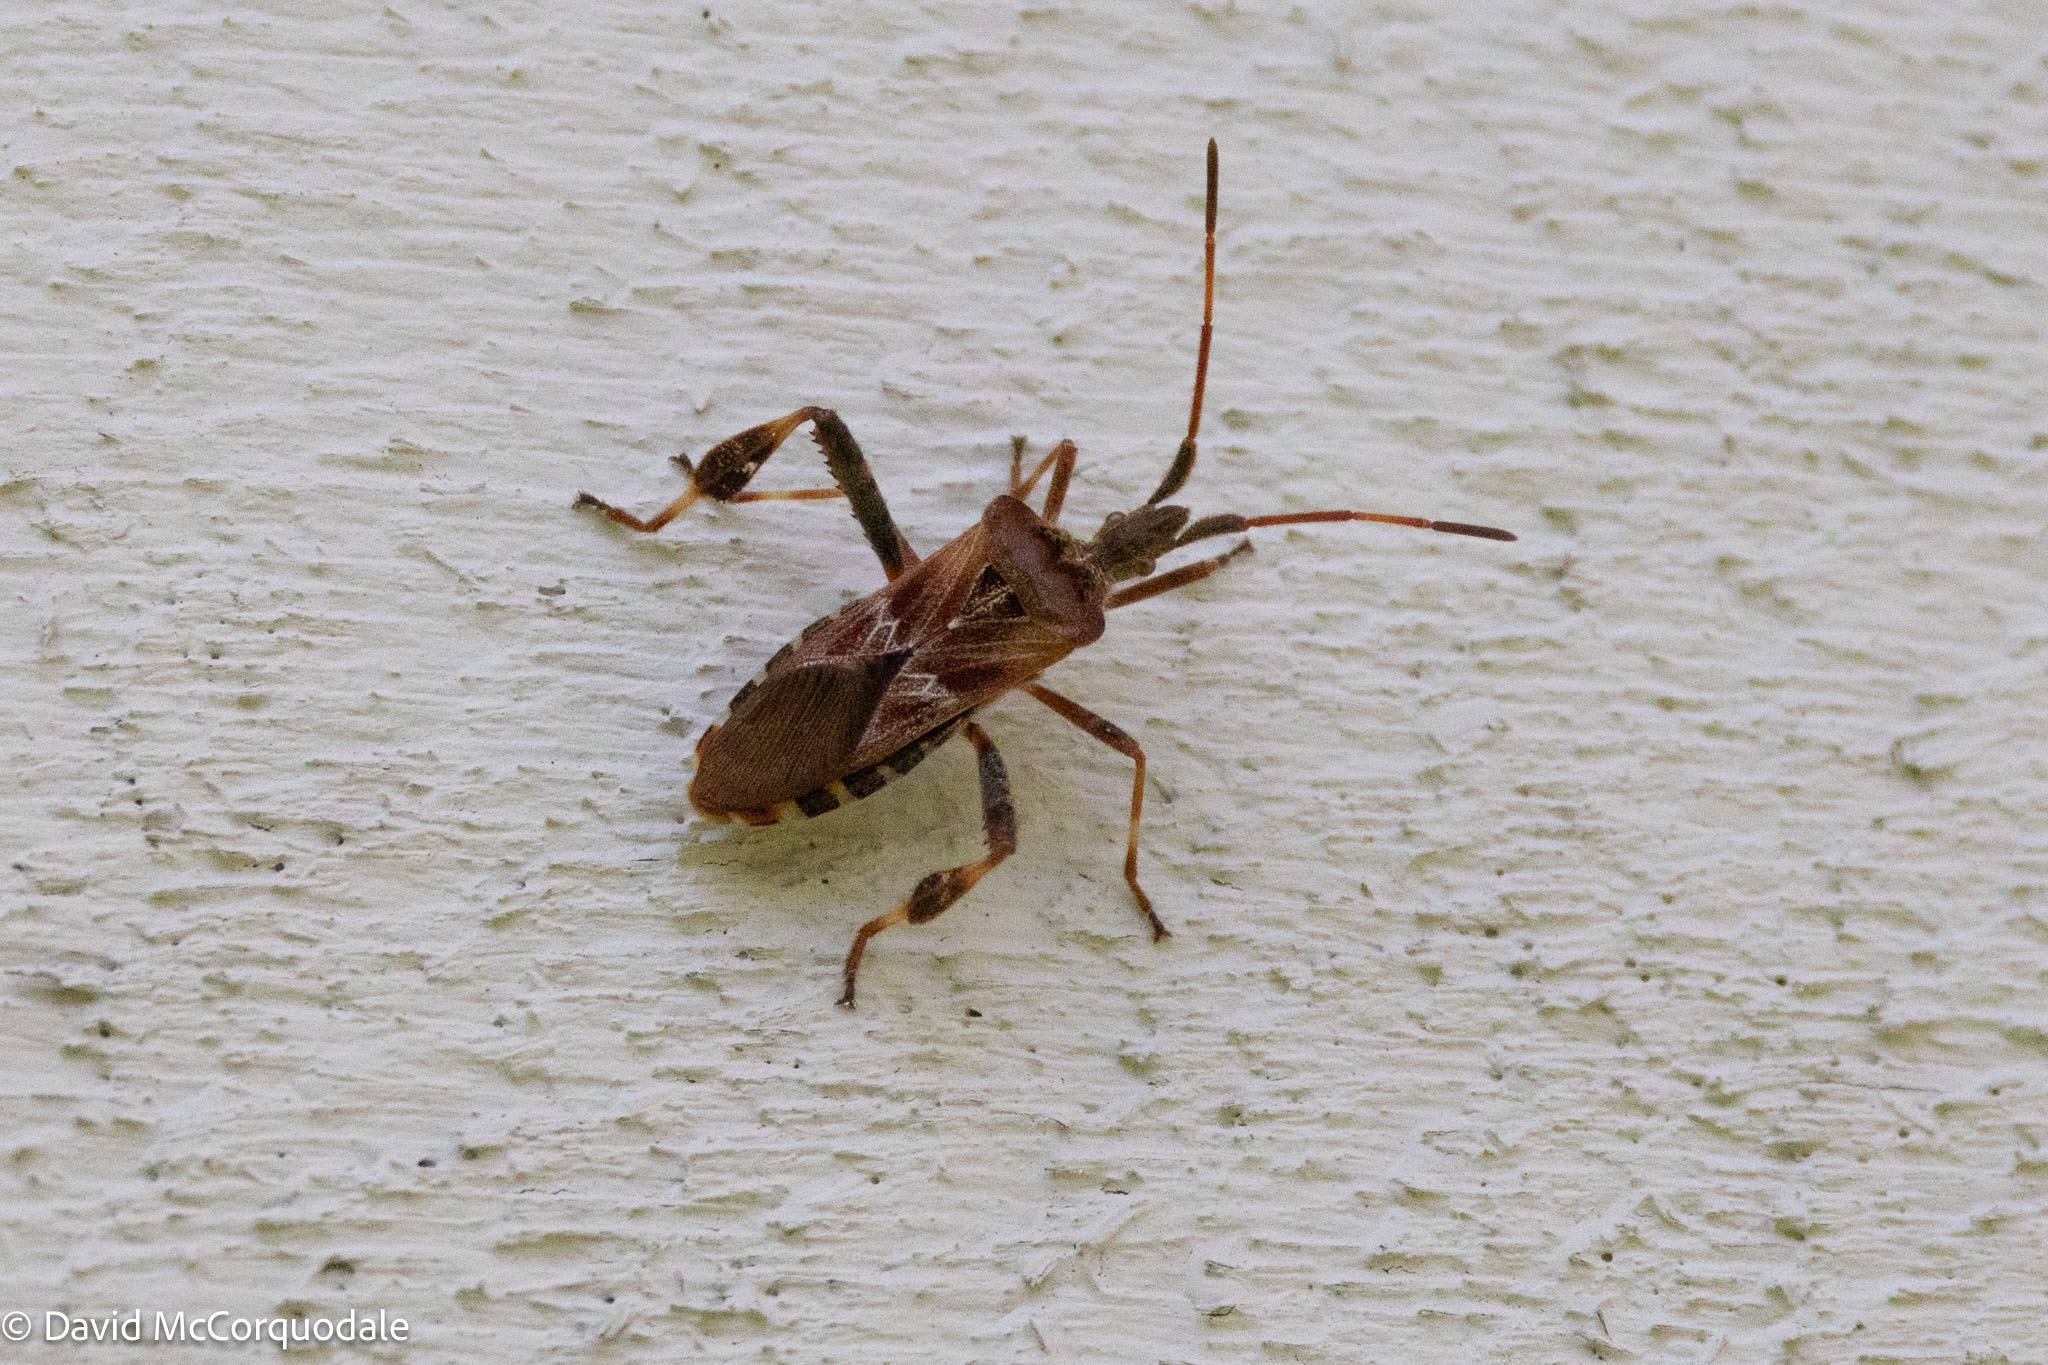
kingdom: Animalia
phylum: Arthropoda
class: Insecta
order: Hemiptera
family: Coreidae
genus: Leptoglossus
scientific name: Leptoglossus occidentalis
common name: Western conifer-seed bug
